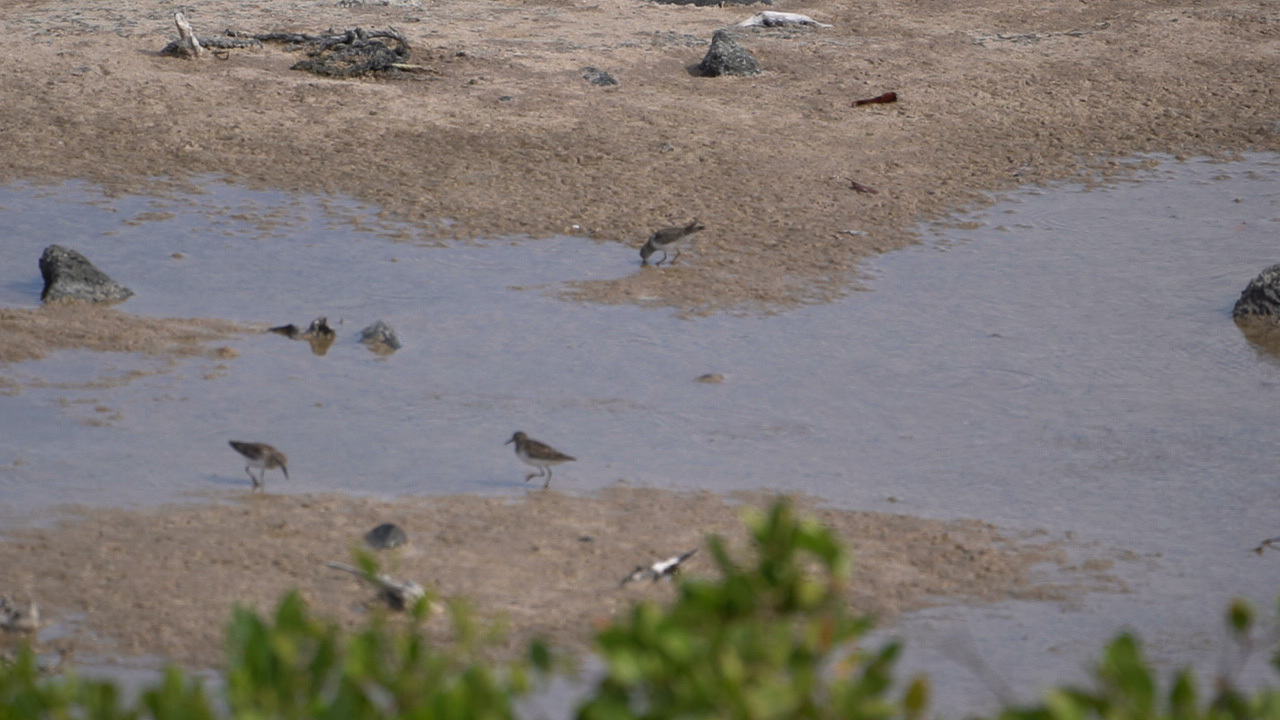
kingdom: Animalia
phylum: Chordata
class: Aves
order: Charadriiformes
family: Scolopacidae
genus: Calidris
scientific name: Calidris minutilla
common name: Least sandpiper
